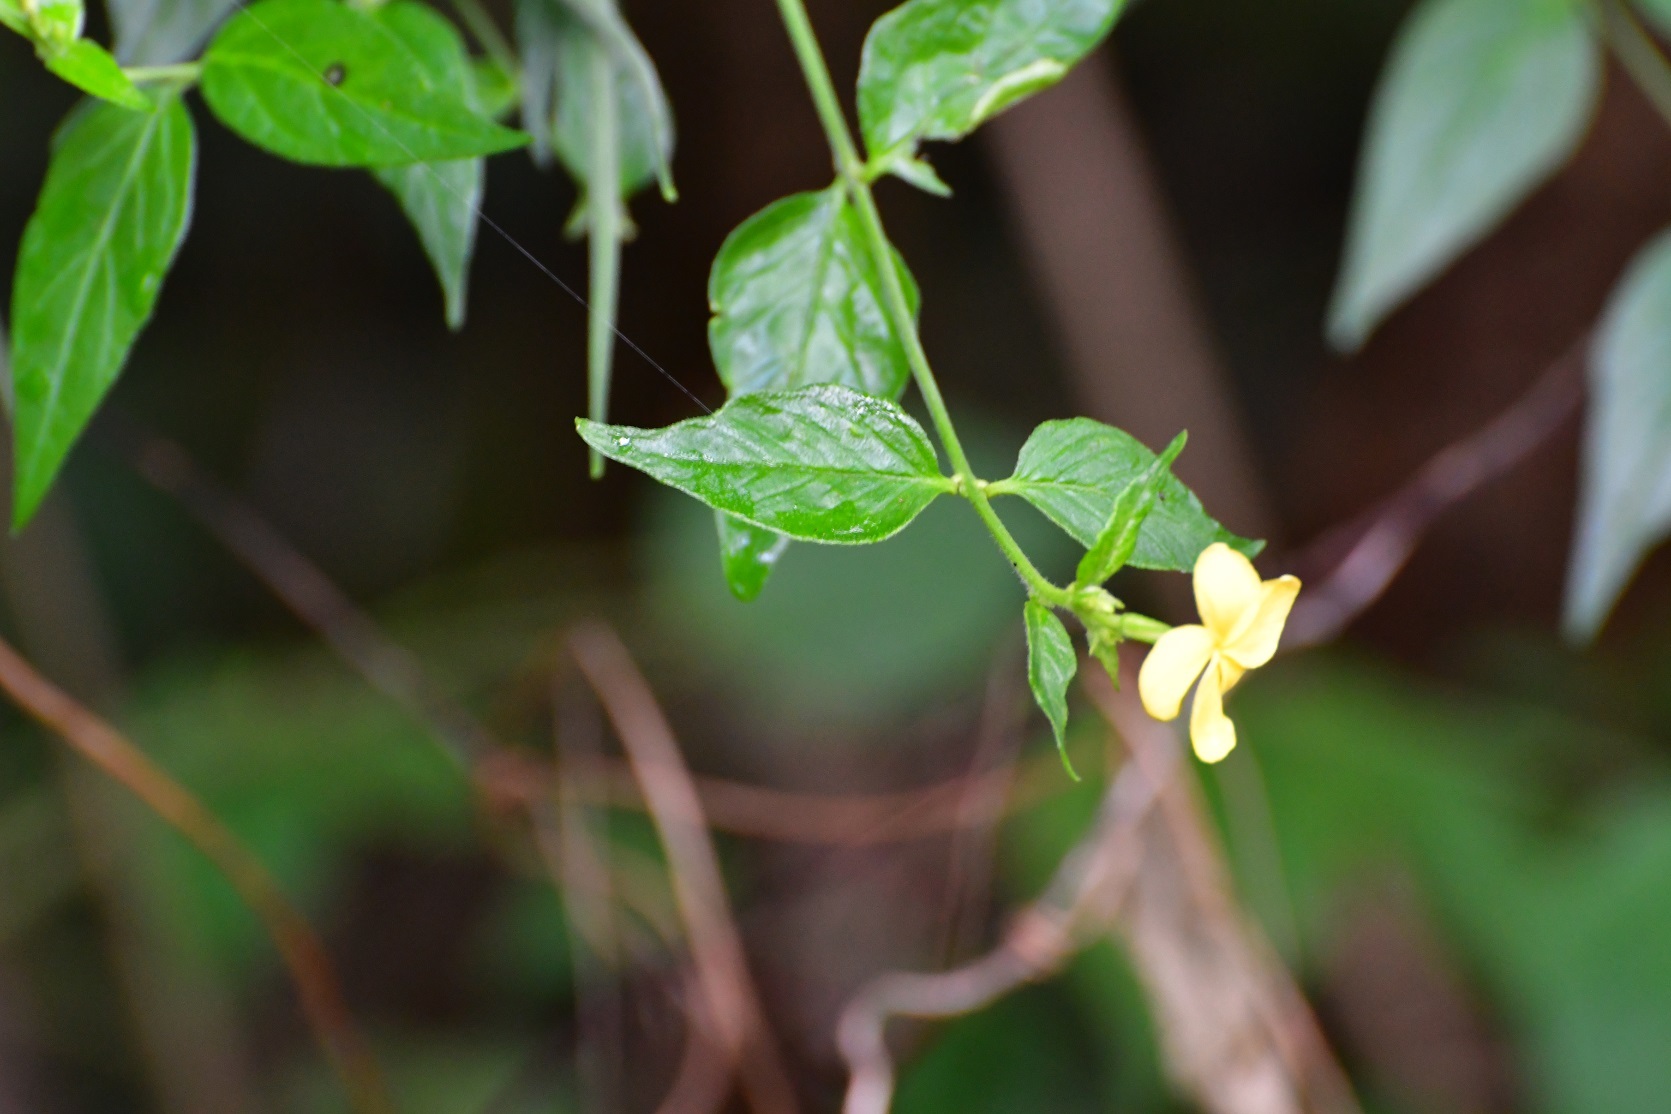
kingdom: Plantae
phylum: Tracheophyta
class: Magnoliopsida
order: Gentianales
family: Apocynaceae
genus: Haplophyton
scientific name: Haplophyton cimicidum
